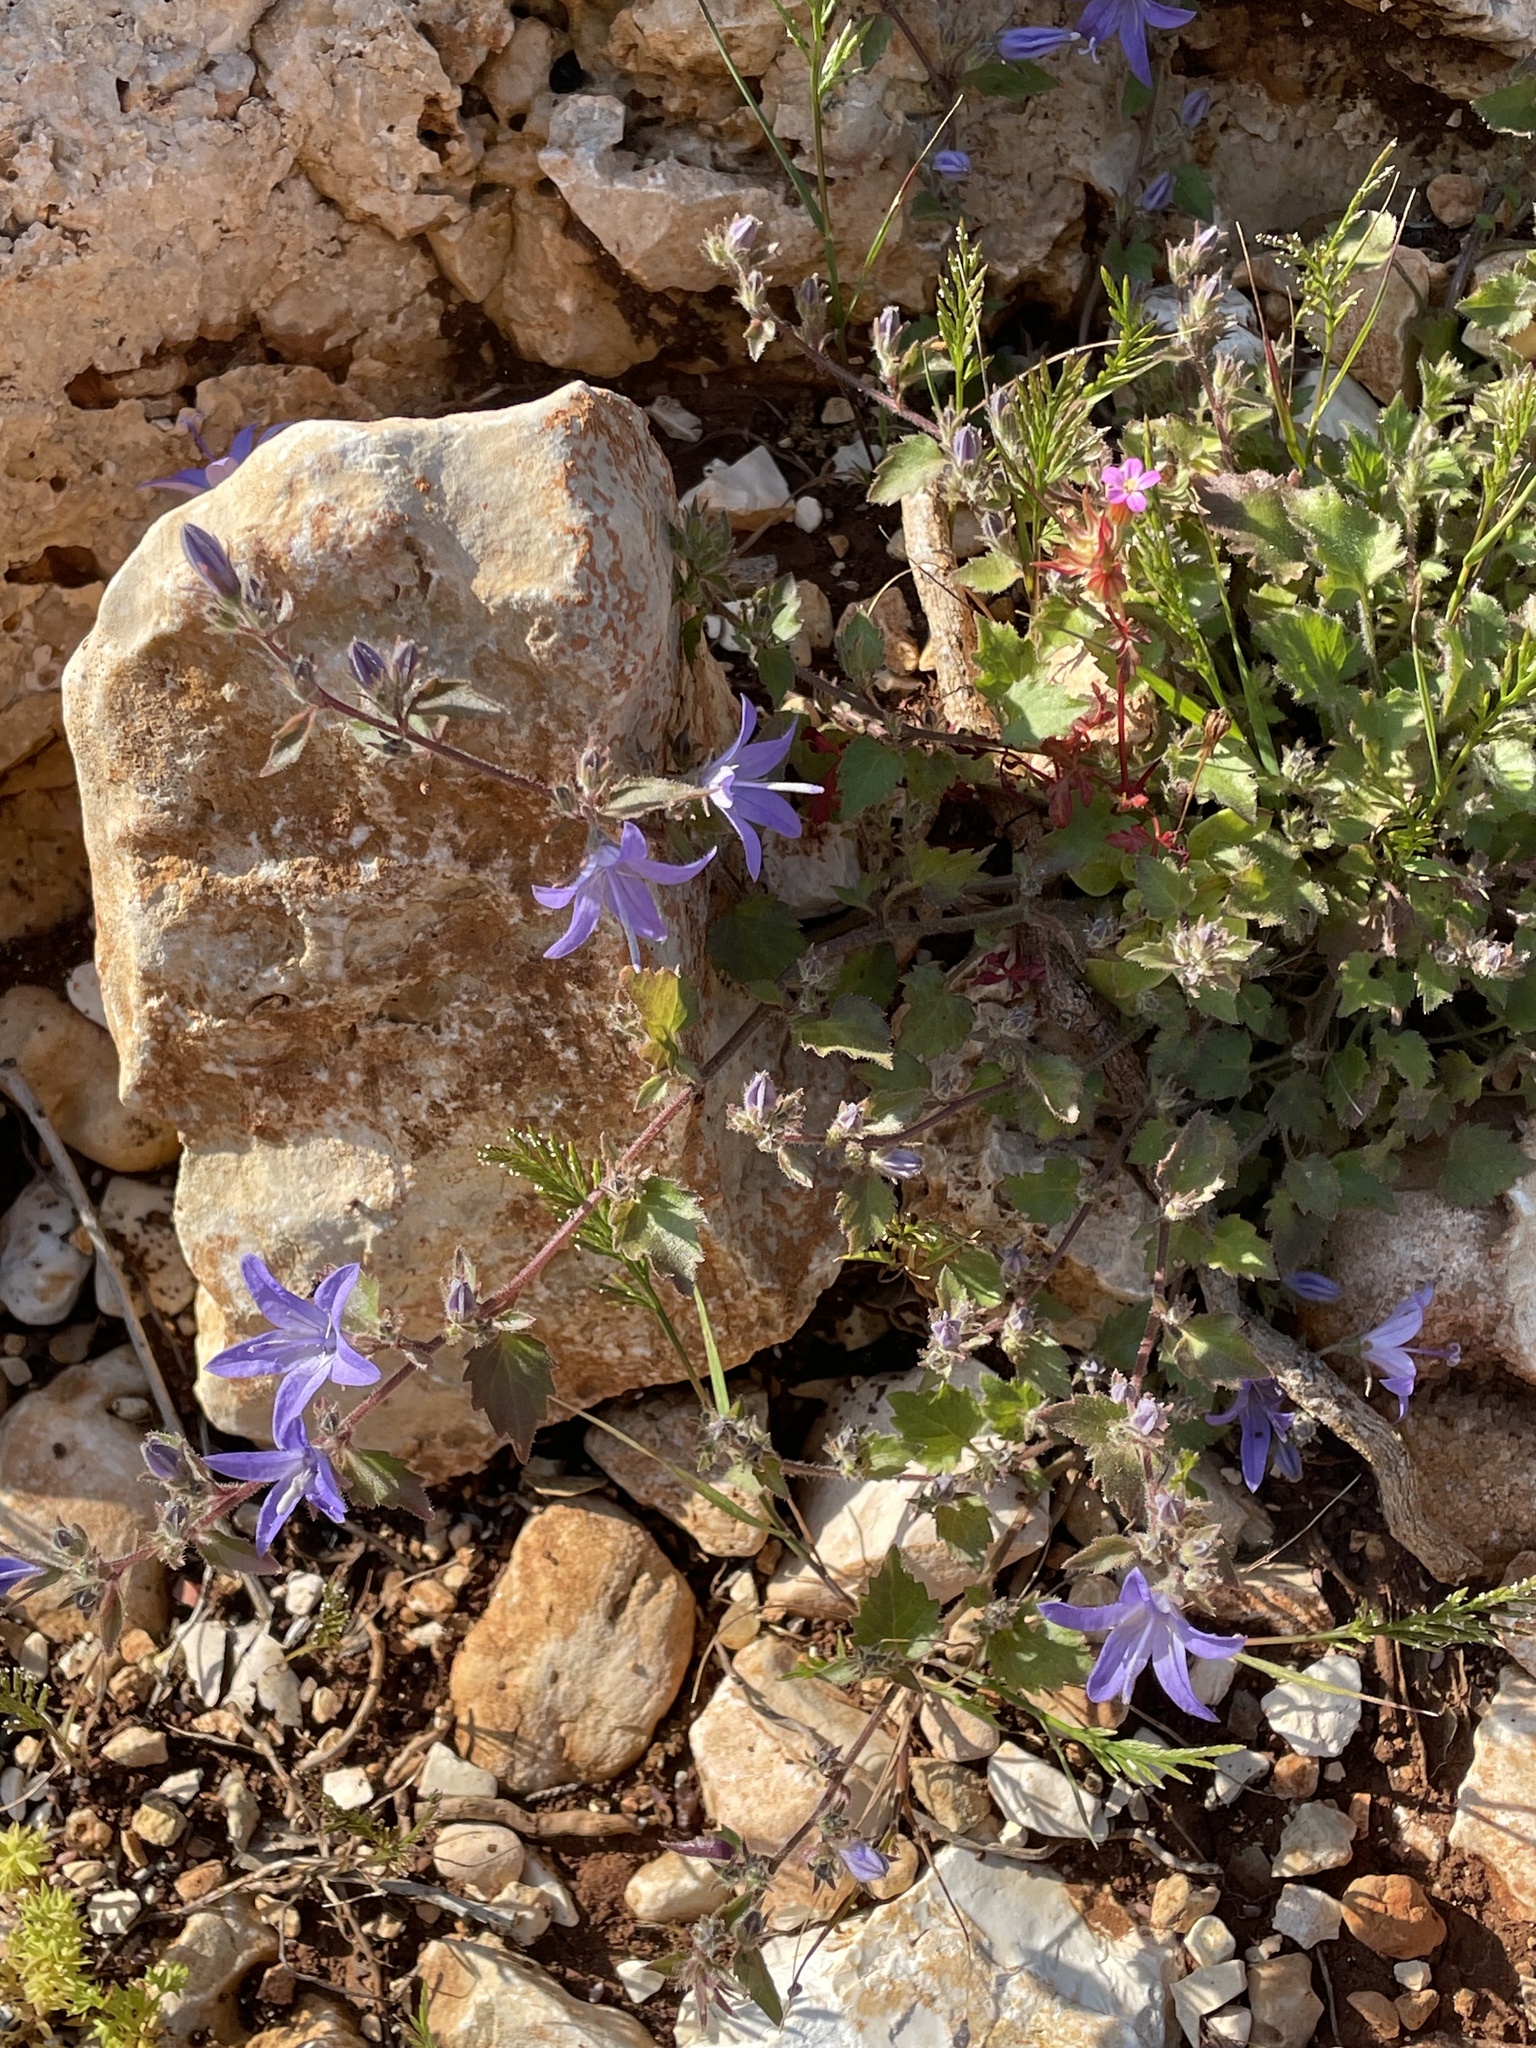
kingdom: Plantae
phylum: Tracheophyta
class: Magnoliopsida
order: Asterales
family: Campanulaceae
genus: Campanula
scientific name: Campanula garganica
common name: Adriatic bellflower
